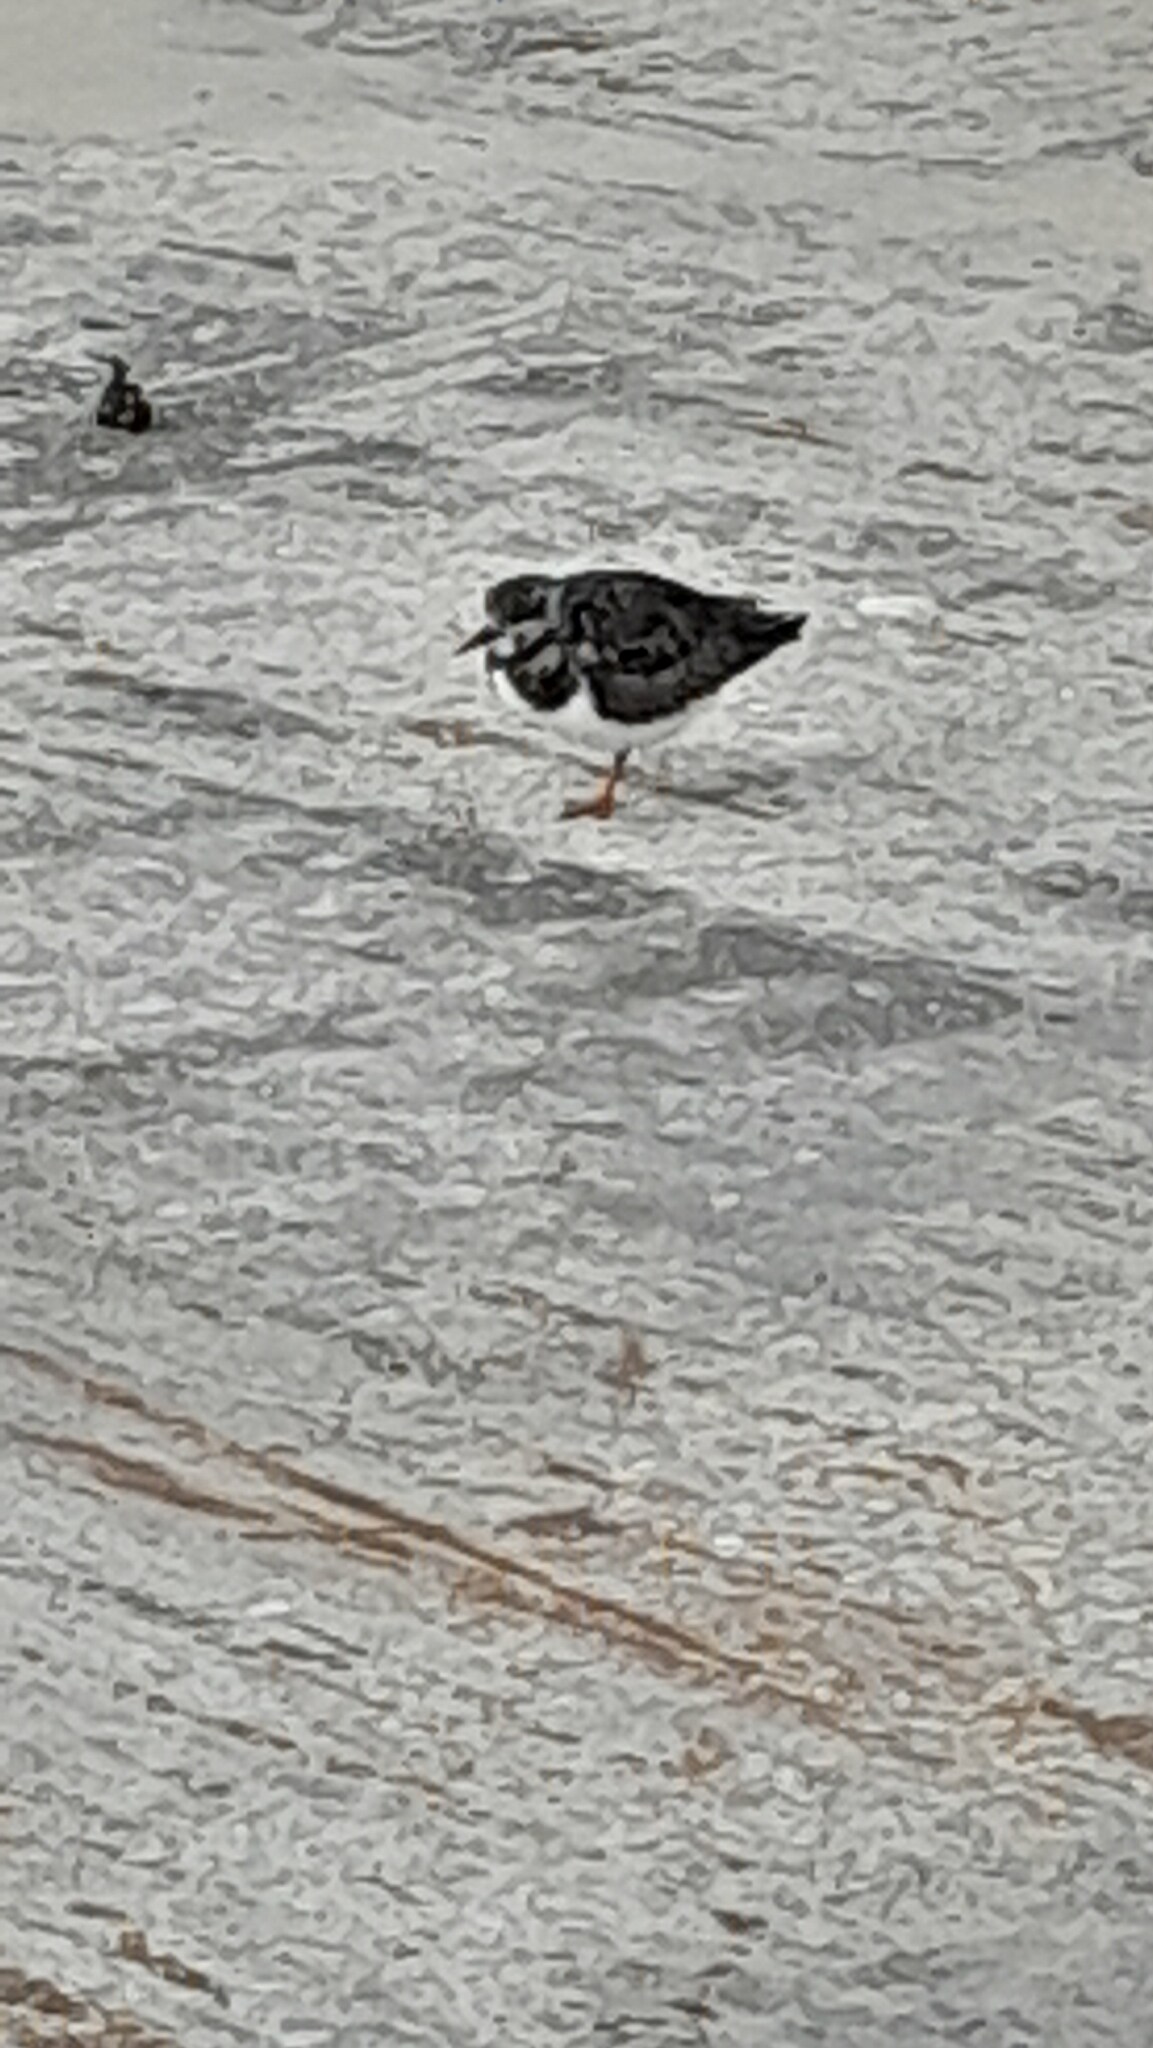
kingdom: Animalia
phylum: Chordata
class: Aves
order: Charadriiformes
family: Scolopacidae
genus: Arenaria
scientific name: Arenaria interpres
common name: Ruddy turnstone
